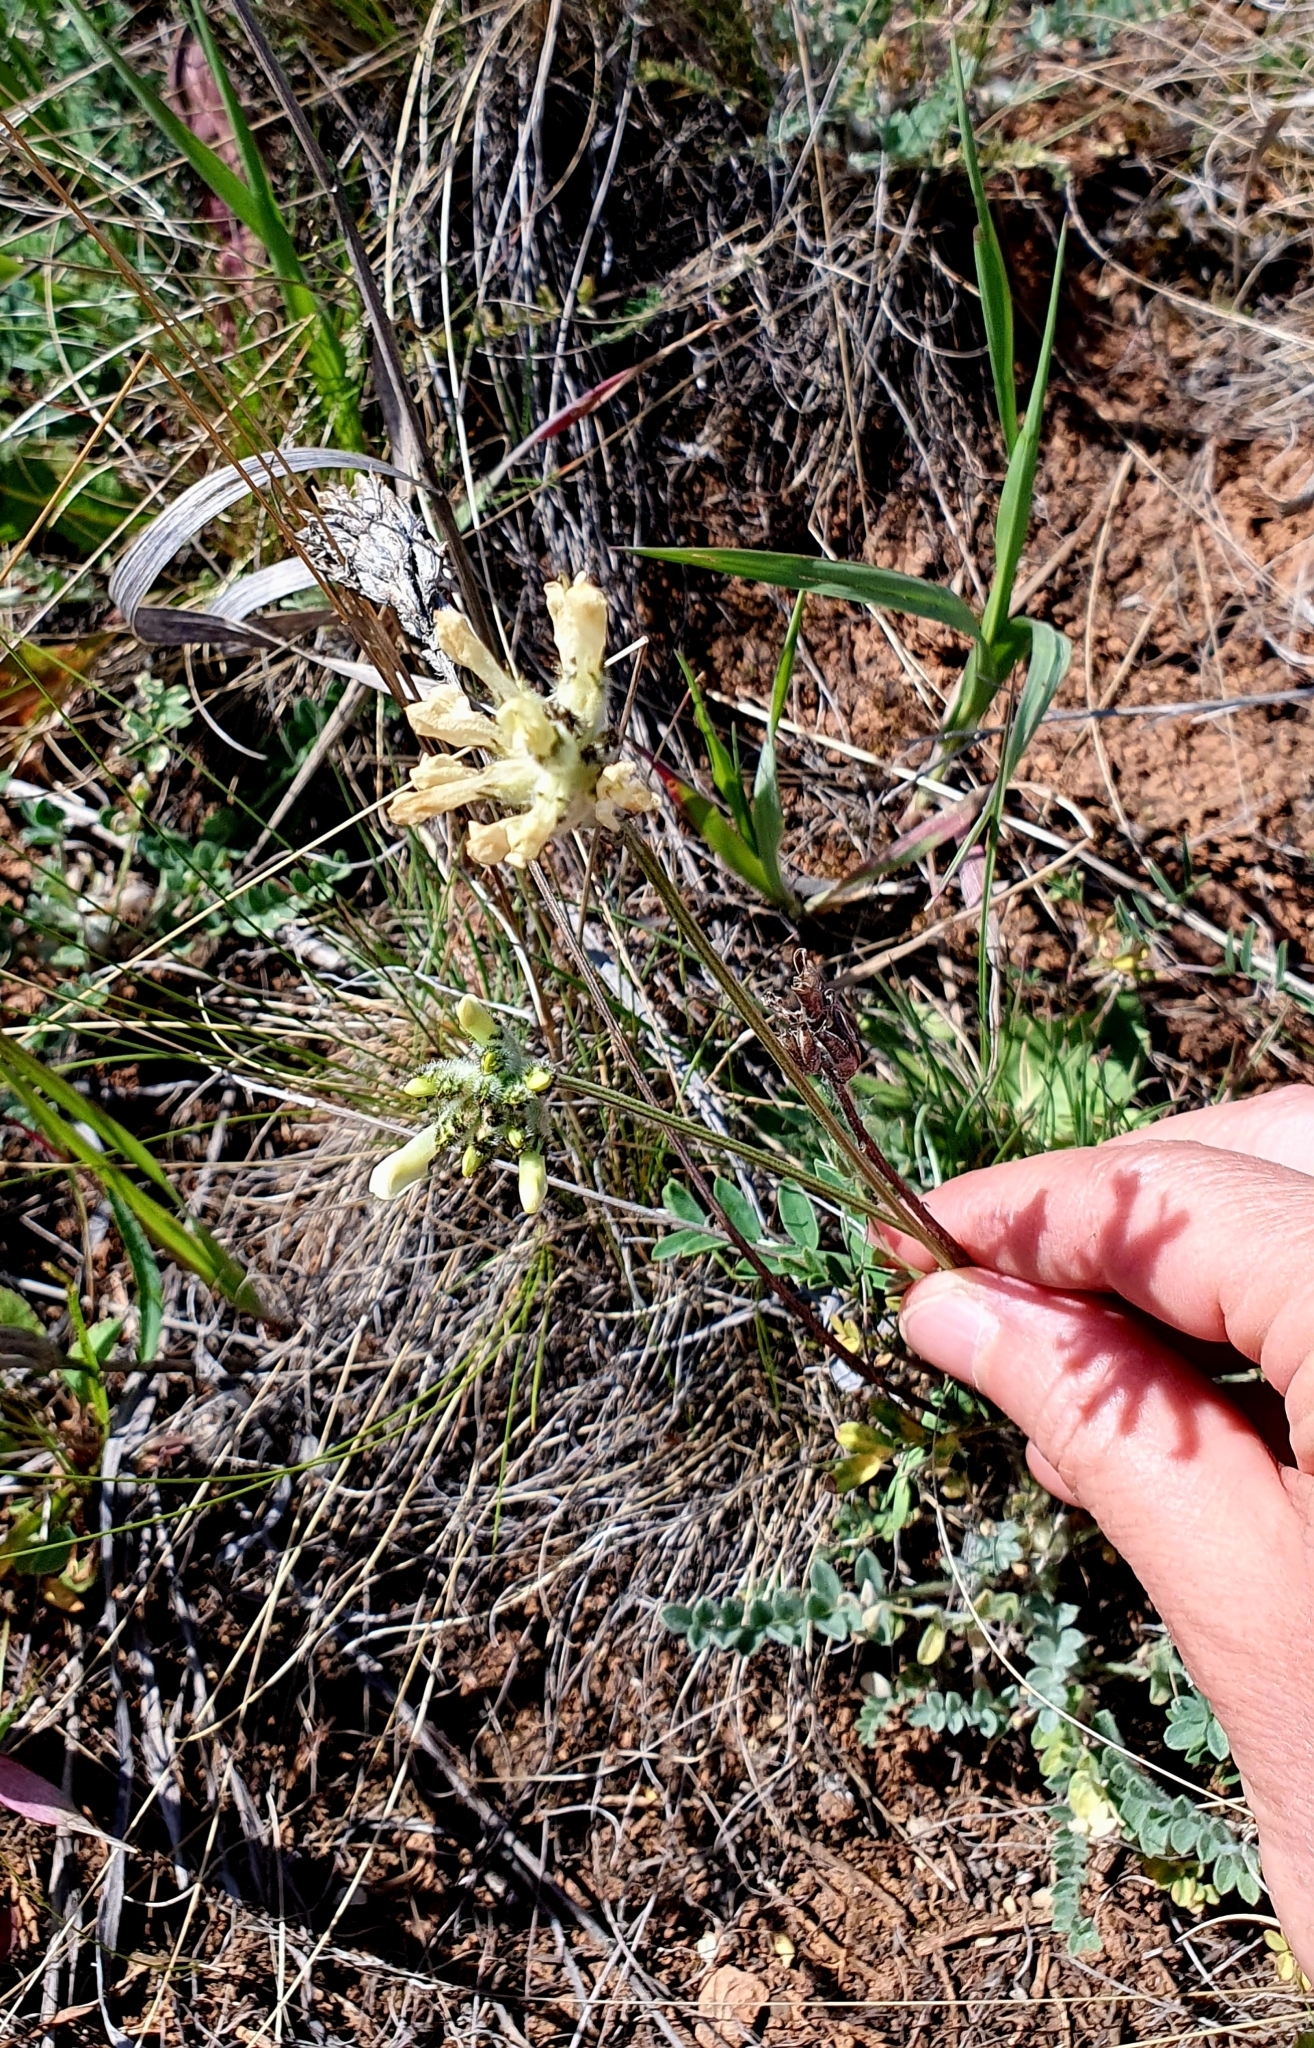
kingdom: Plantae
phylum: Tracheophyta
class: Magnoliopsida
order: Fabales
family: Fabaceae
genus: Astragalus
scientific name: Astragalus zingeri
